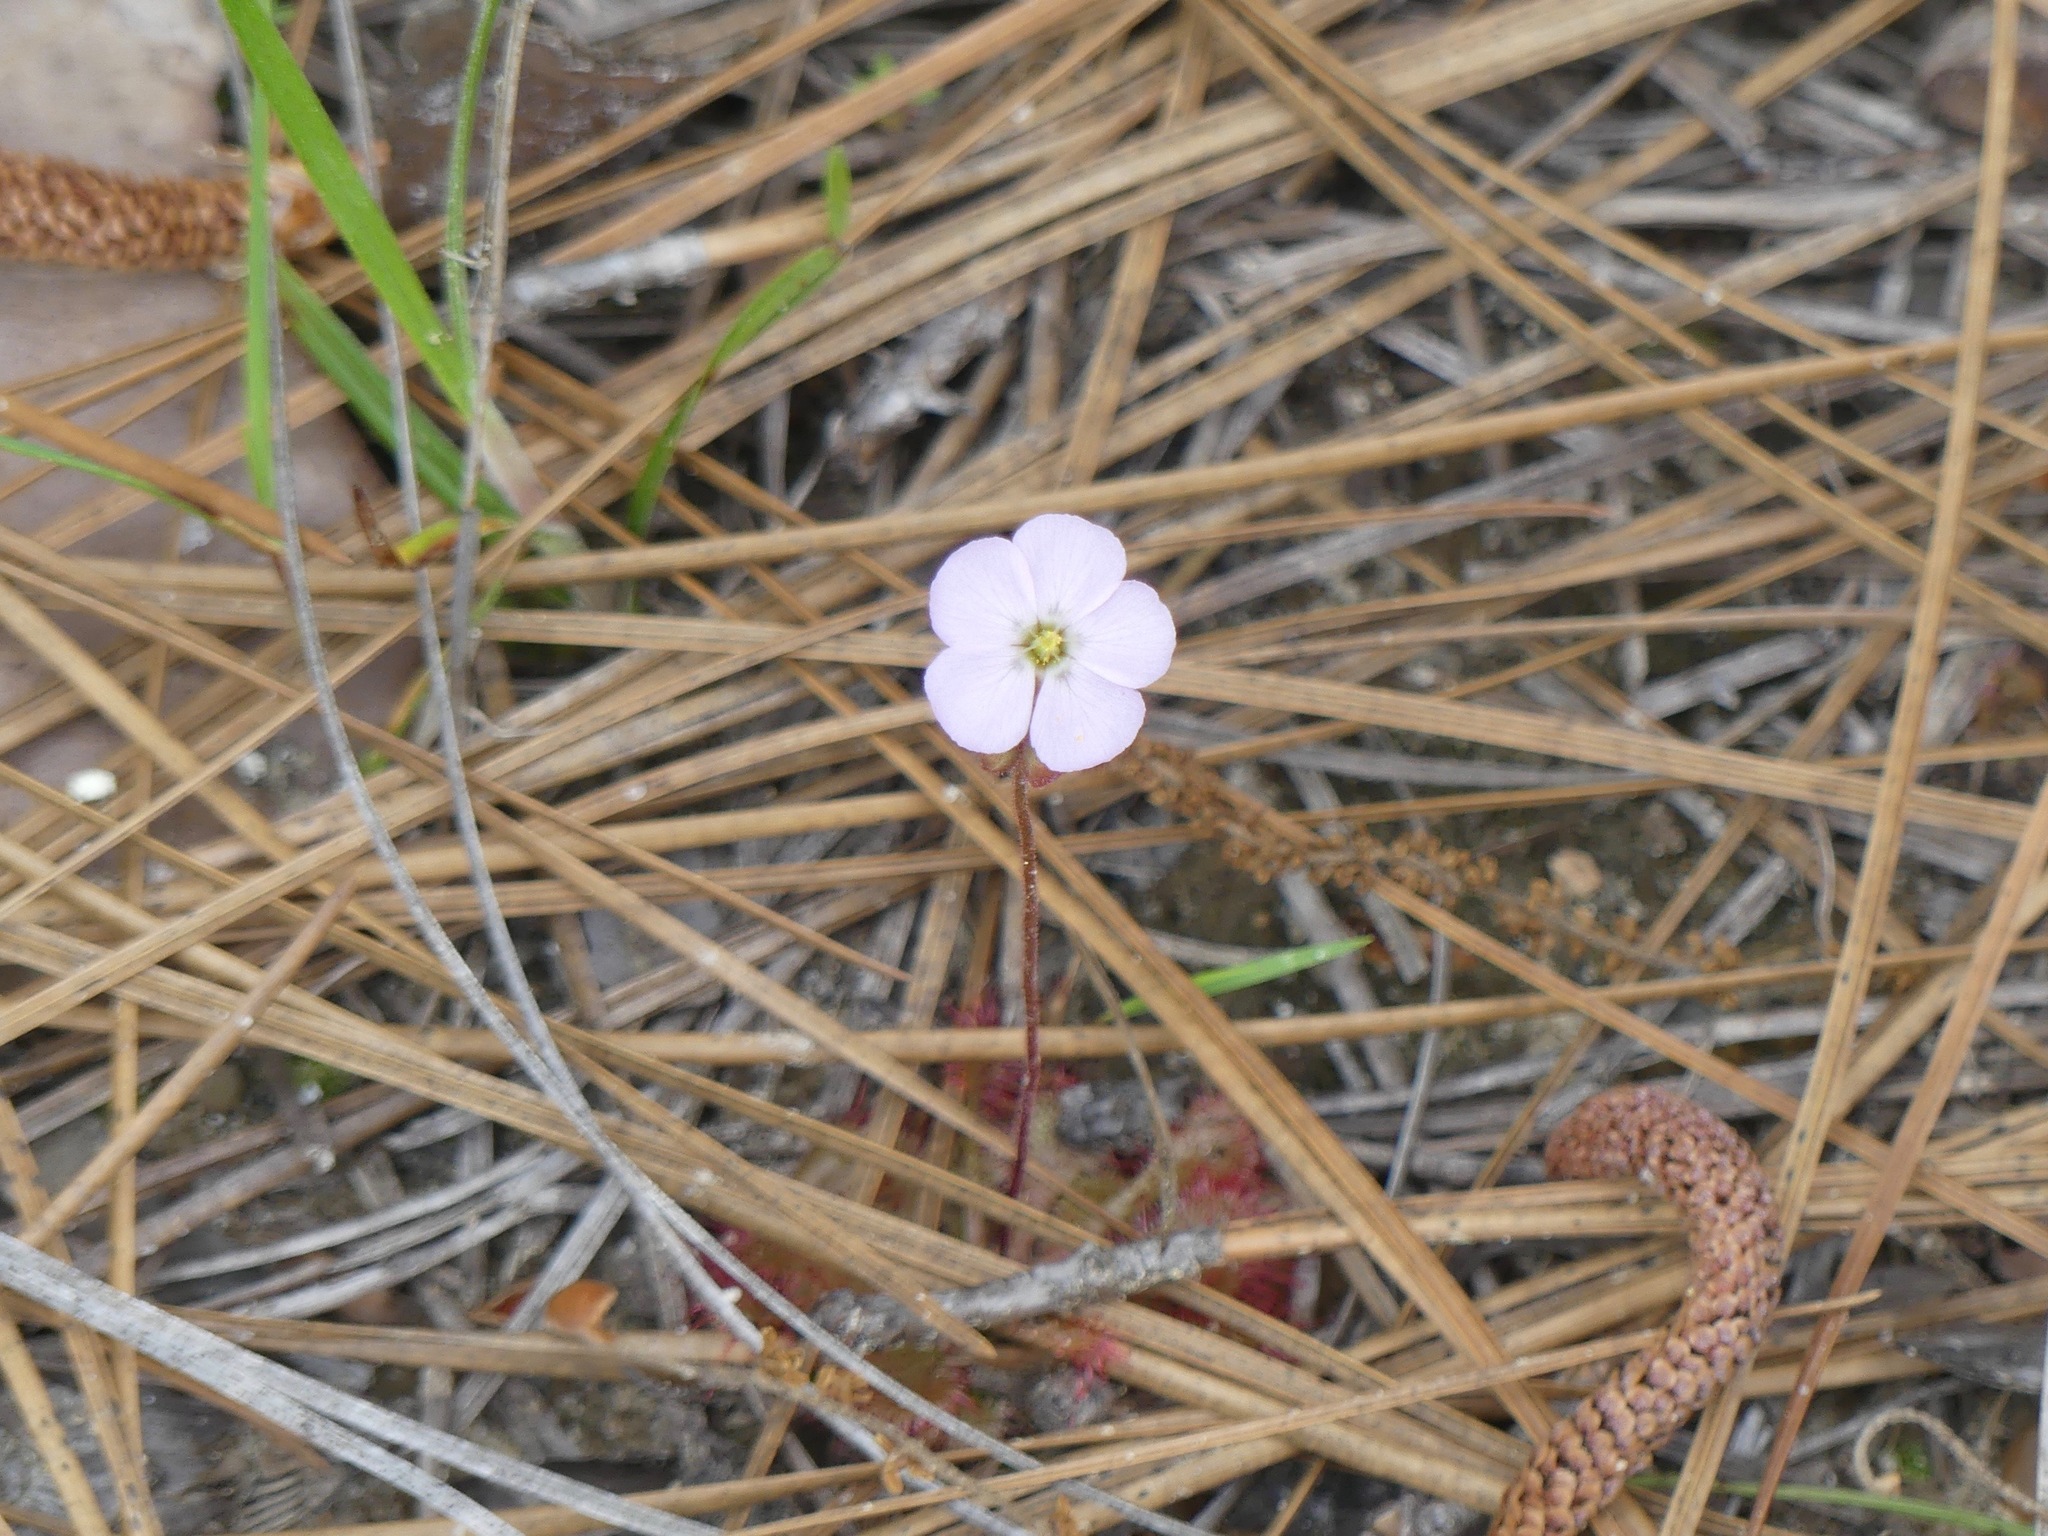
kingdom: Plantae
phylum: Tracheophyta
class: Magnoliopsida
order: Caryophyllales
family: Droseraceae
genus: Drosera
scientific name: Drosera brevifolia
